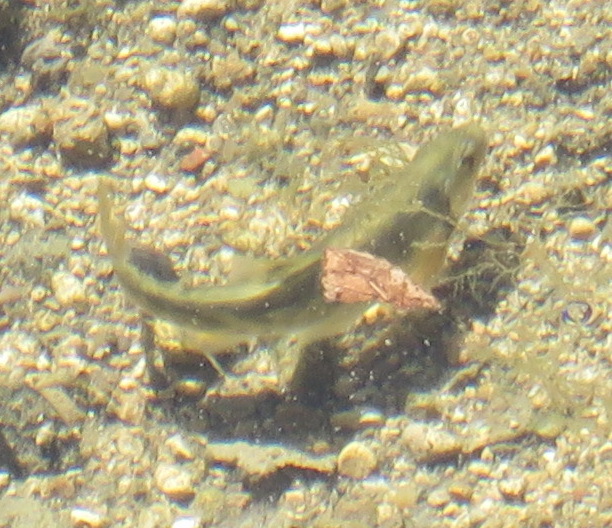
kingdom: Animalia
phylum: Chordata
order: Cypriniformes
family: Cyprinidae
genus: Campostoma
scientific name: Campostoma anomalum
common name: Central stoneroller
